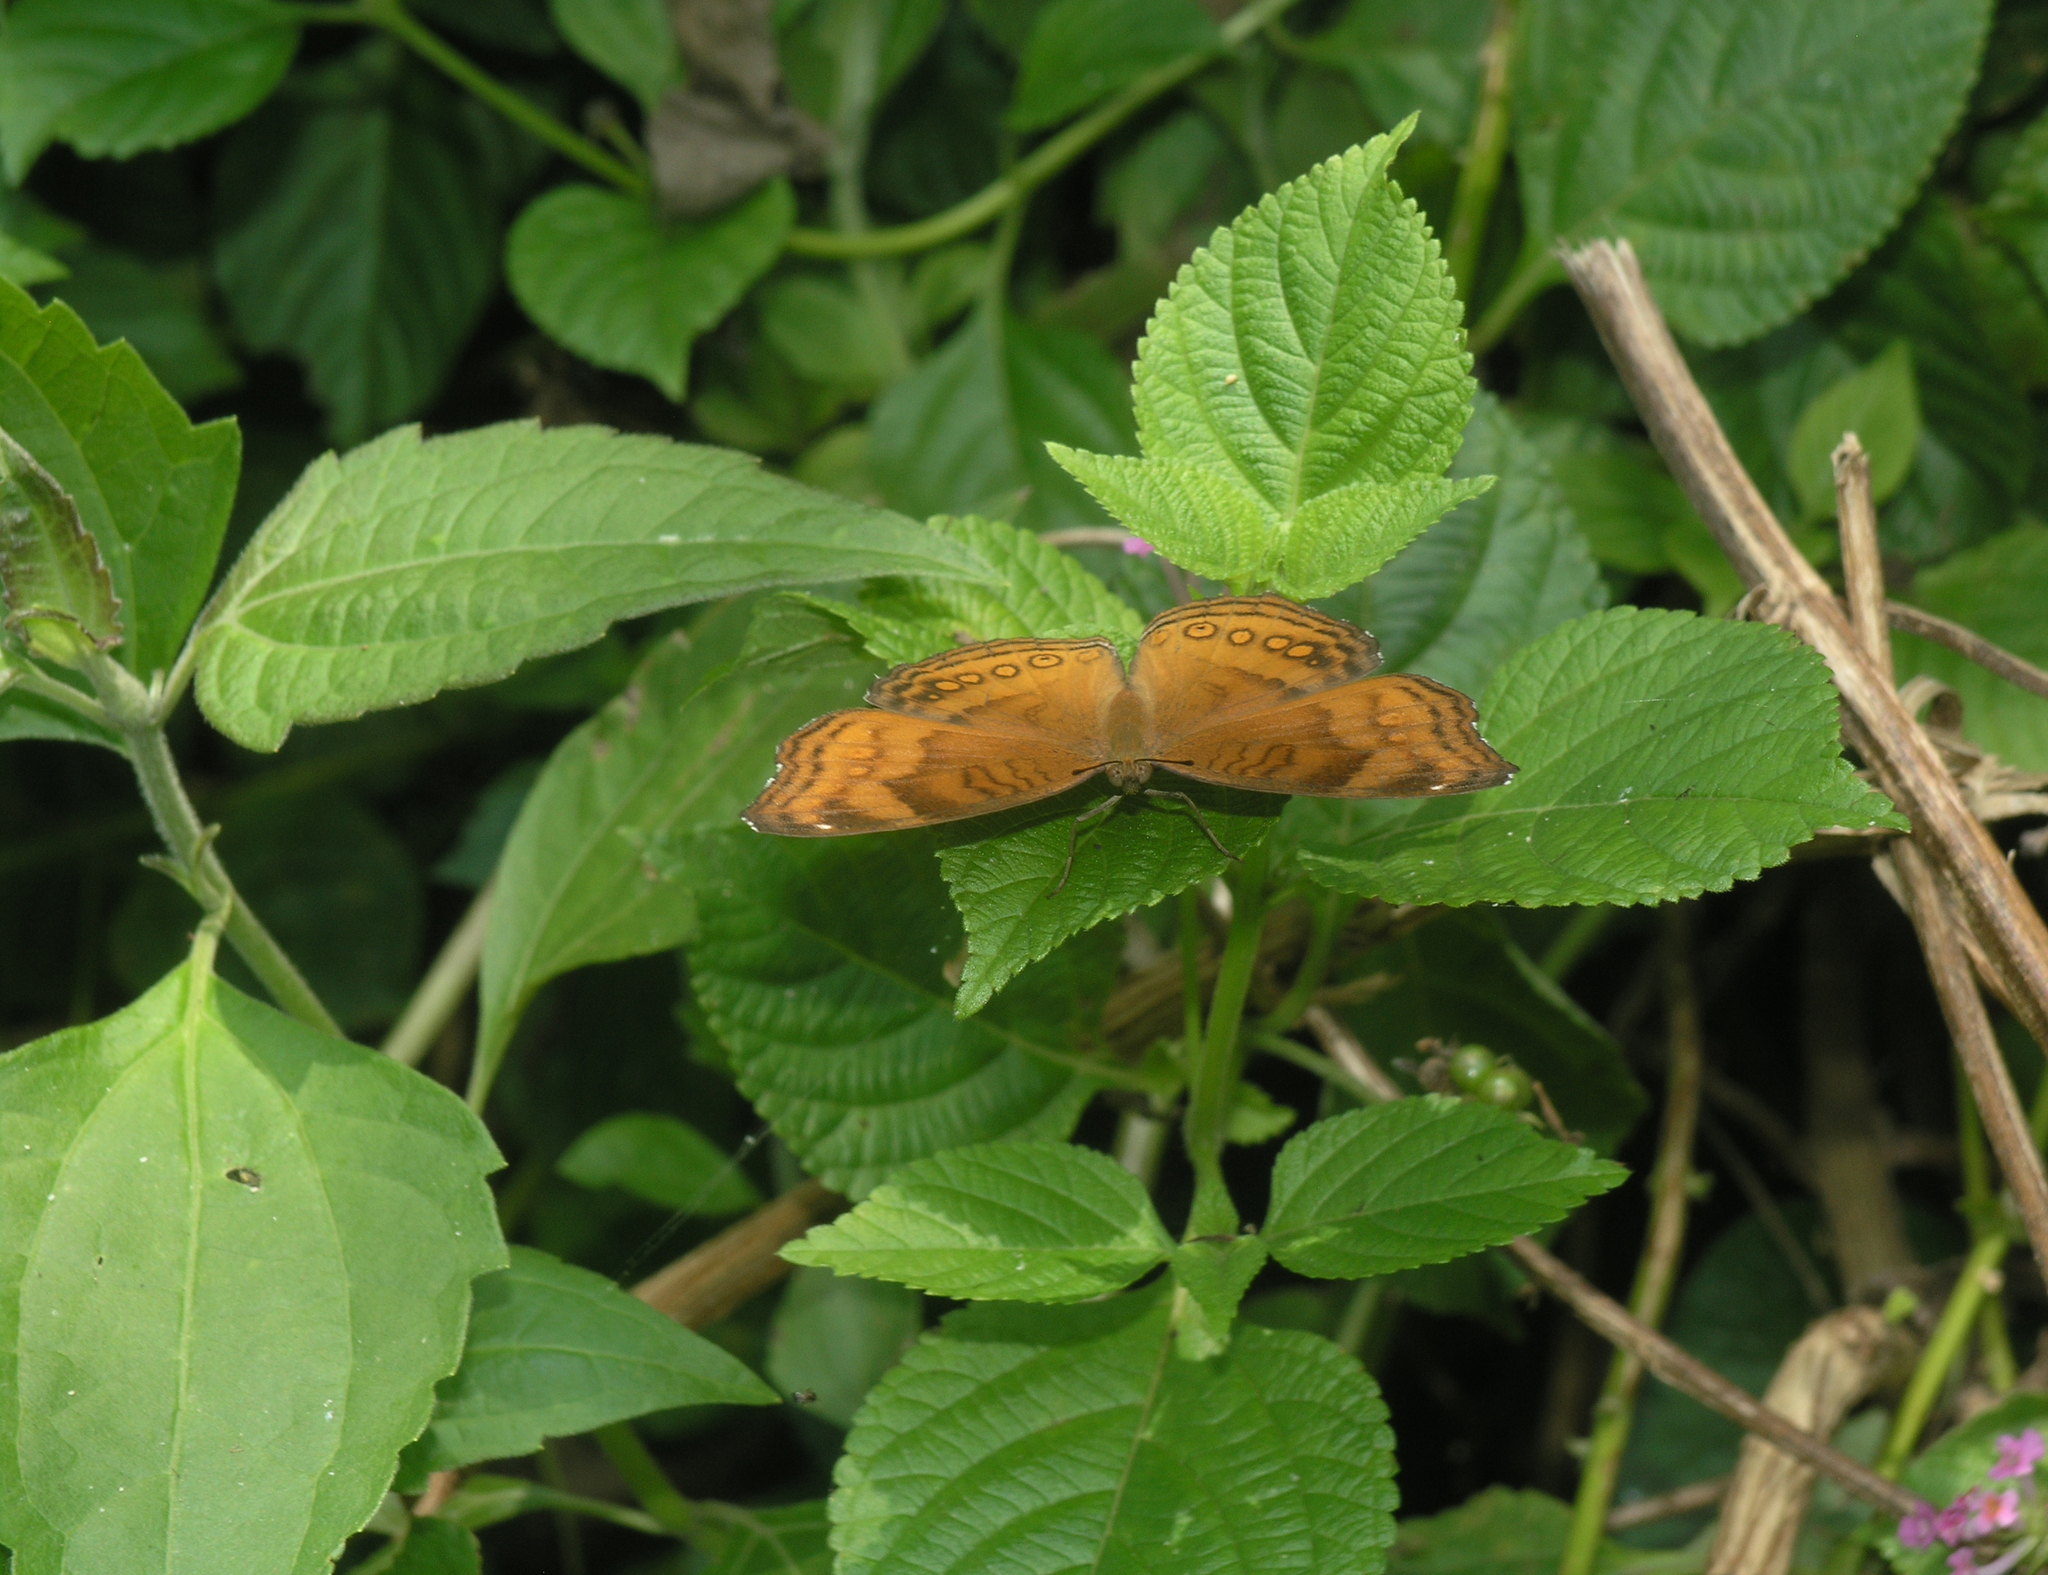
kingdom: Animalia
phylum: Arthropoda
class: Insecta
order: Lepidoptera
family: Nymphalidae
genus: Junonia
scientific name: Junonia hedonia
